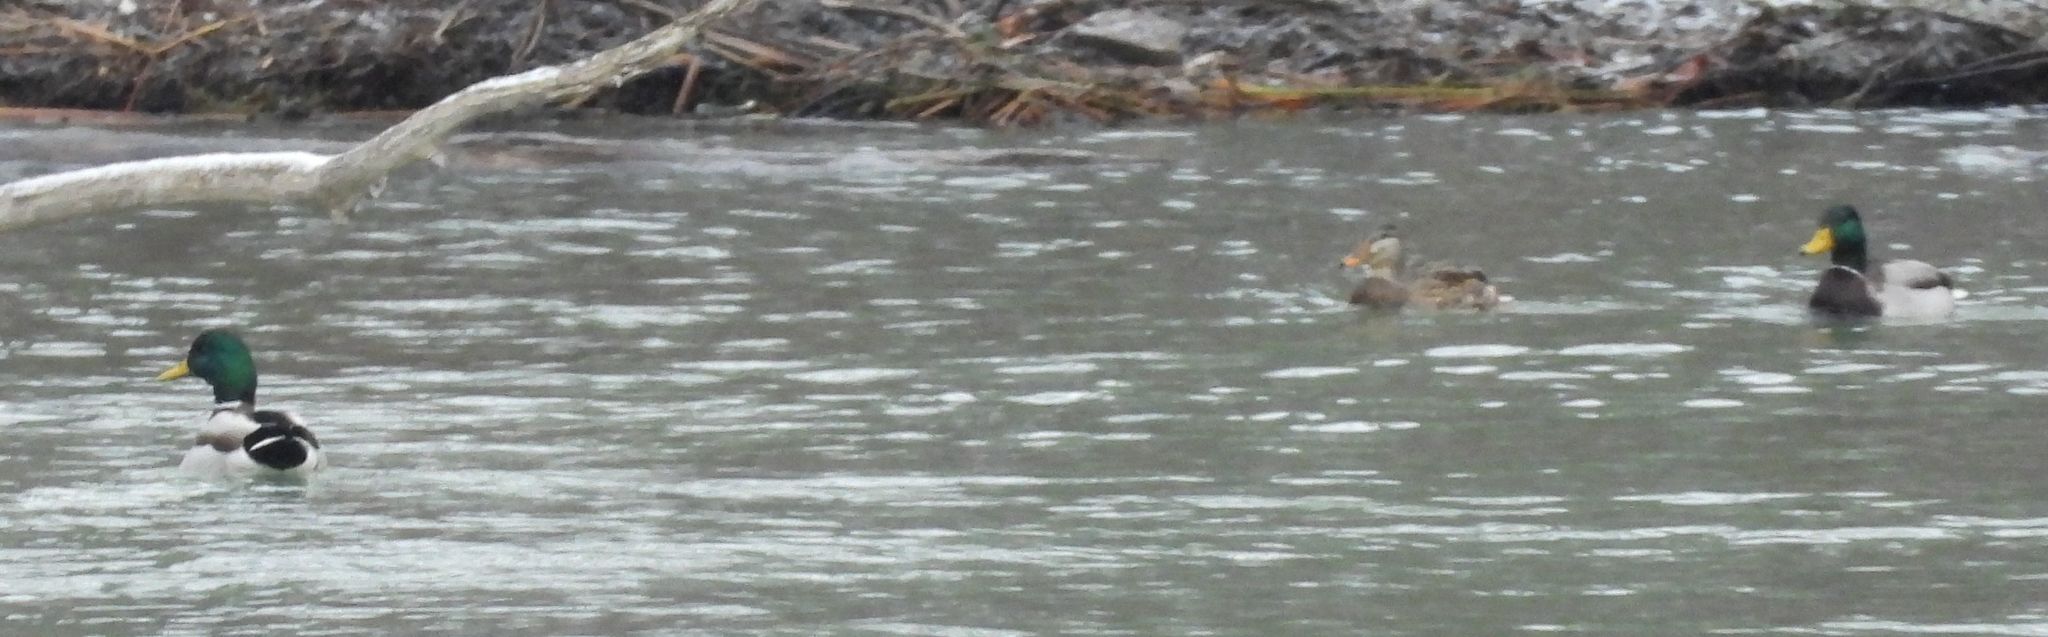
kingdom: Animalia
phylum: Chordata
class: Aves
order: Anseriformes
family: Anatidae
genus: Anas
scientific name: Anas platyrhynchos
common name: Mallard
